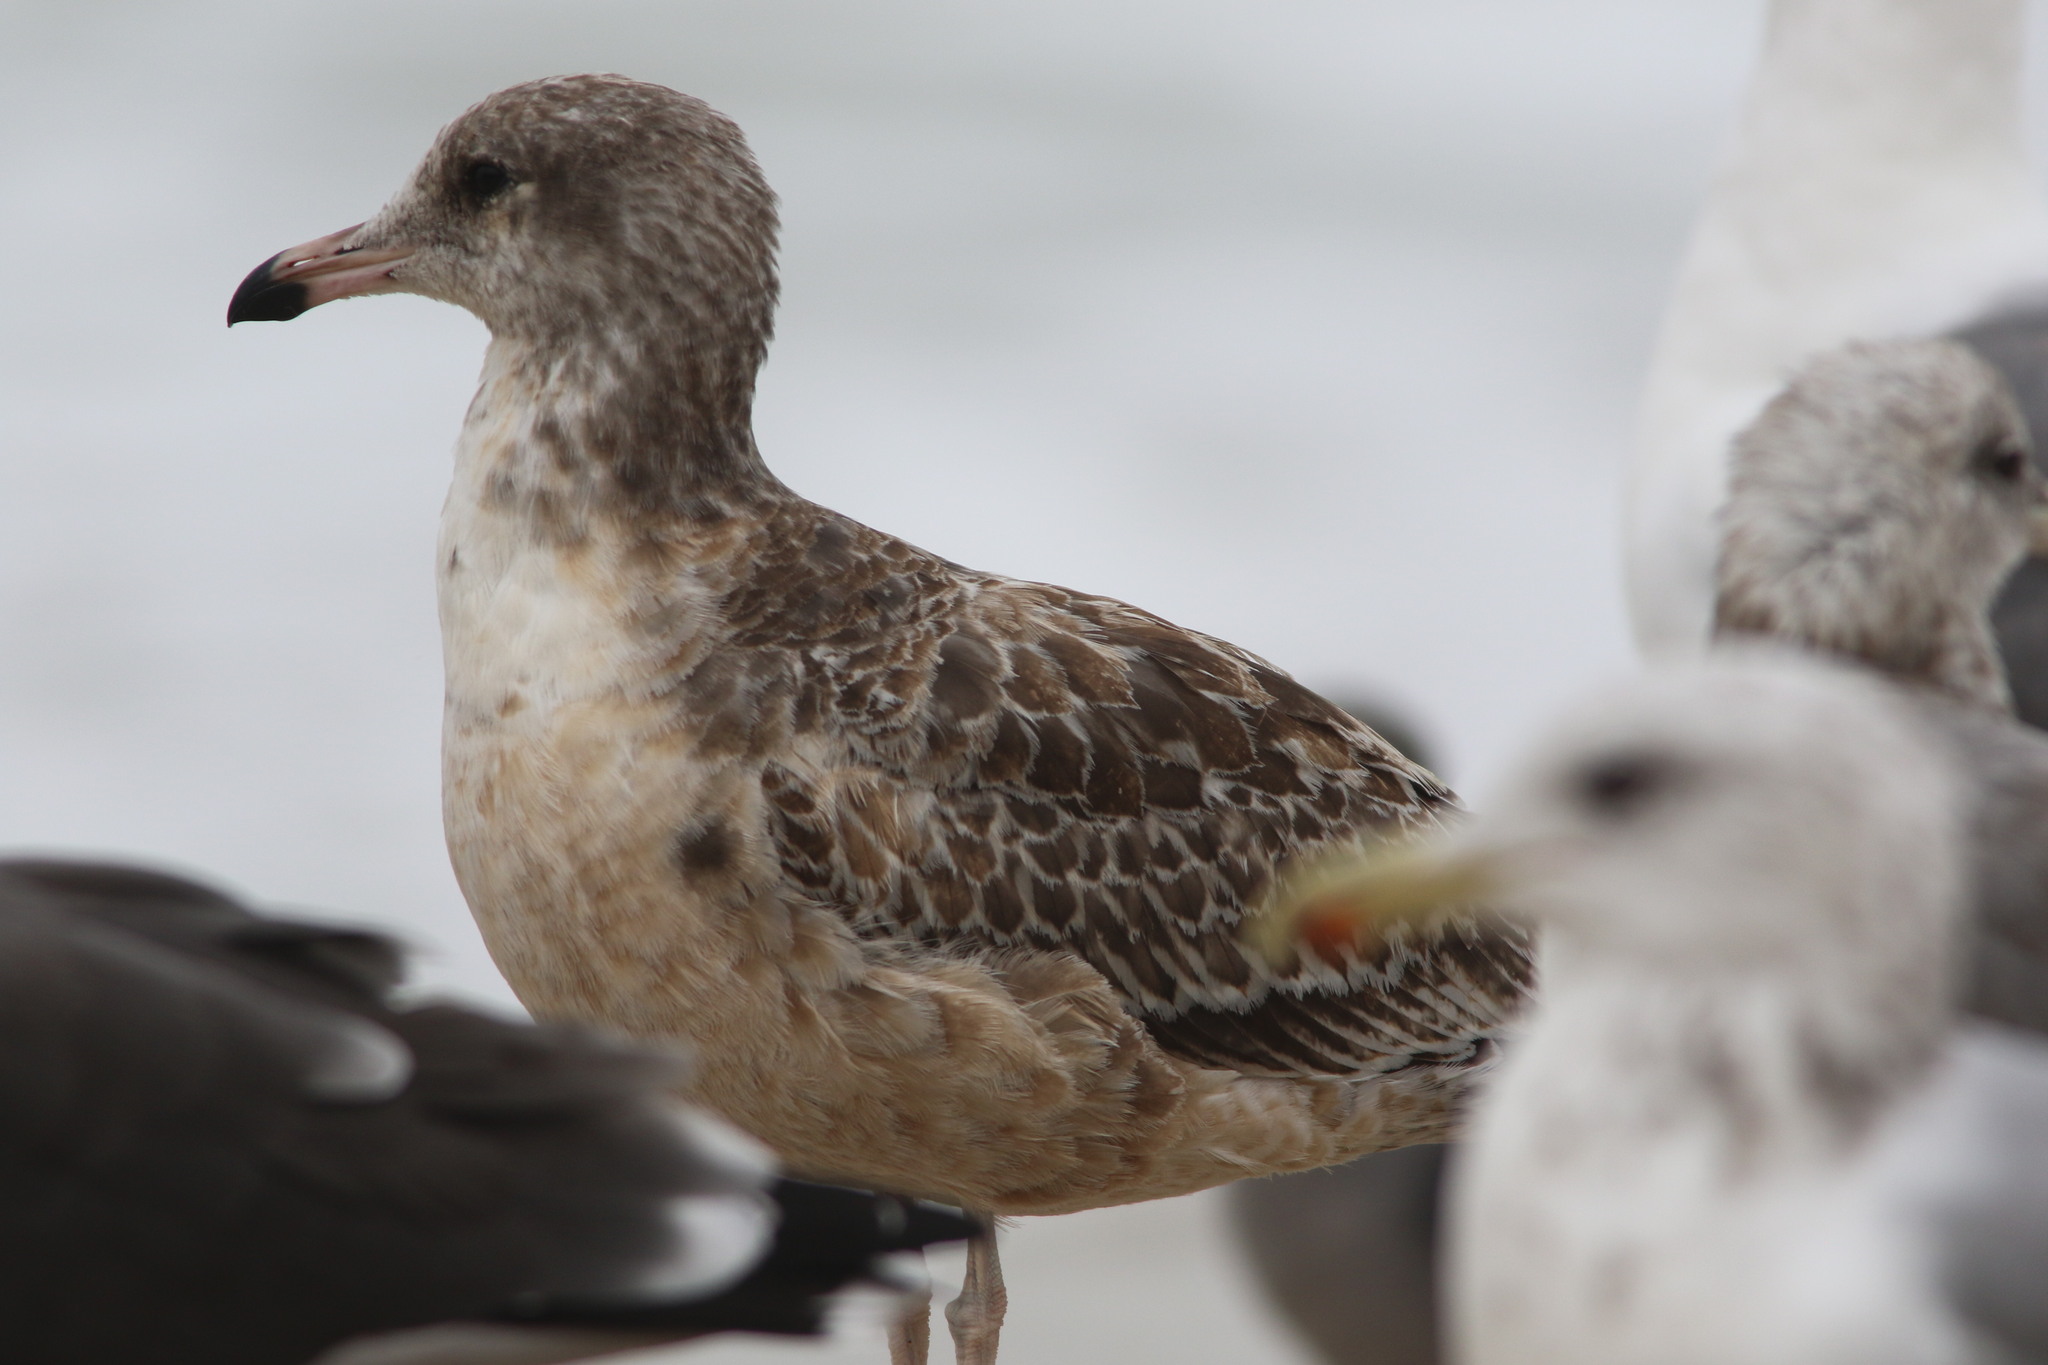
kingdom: Animalia
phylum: Chordata
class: Aves
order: Charadriiformes
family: Laridae
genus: Larus
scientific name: Larus californicus
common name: California gull
